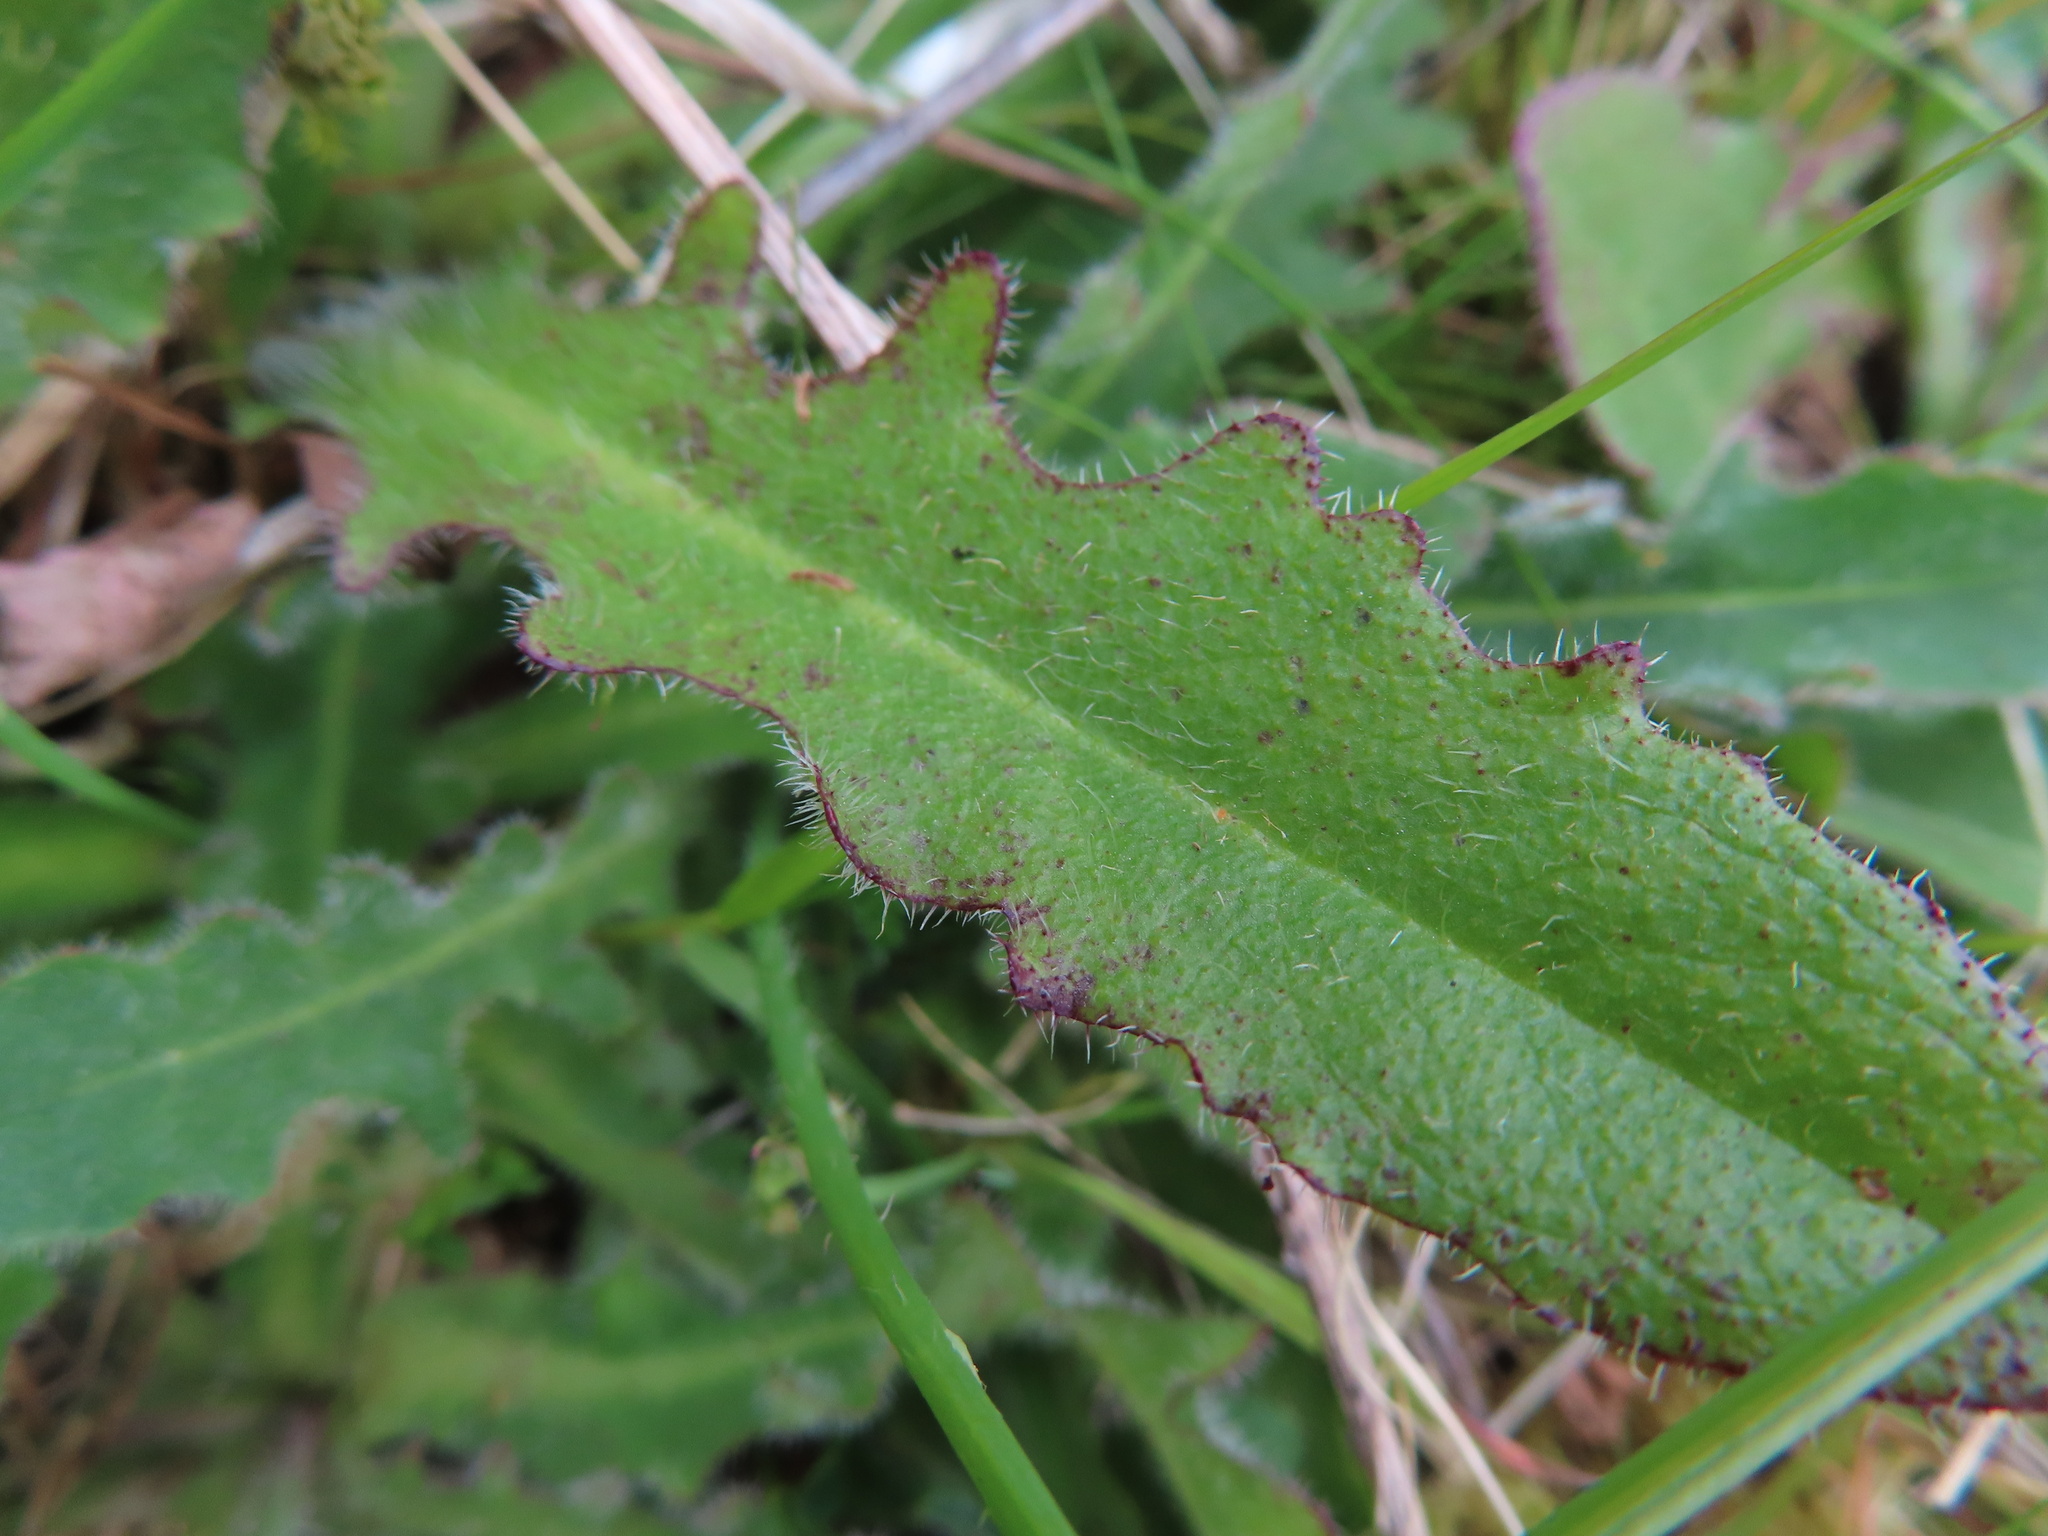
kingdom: Plantae
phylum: Tracheophyta
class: Magnoliopsida
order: Asterales
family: Asteraceae
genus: Hypochaeris
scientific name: Hypochaeris radicata
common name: Flatweed
